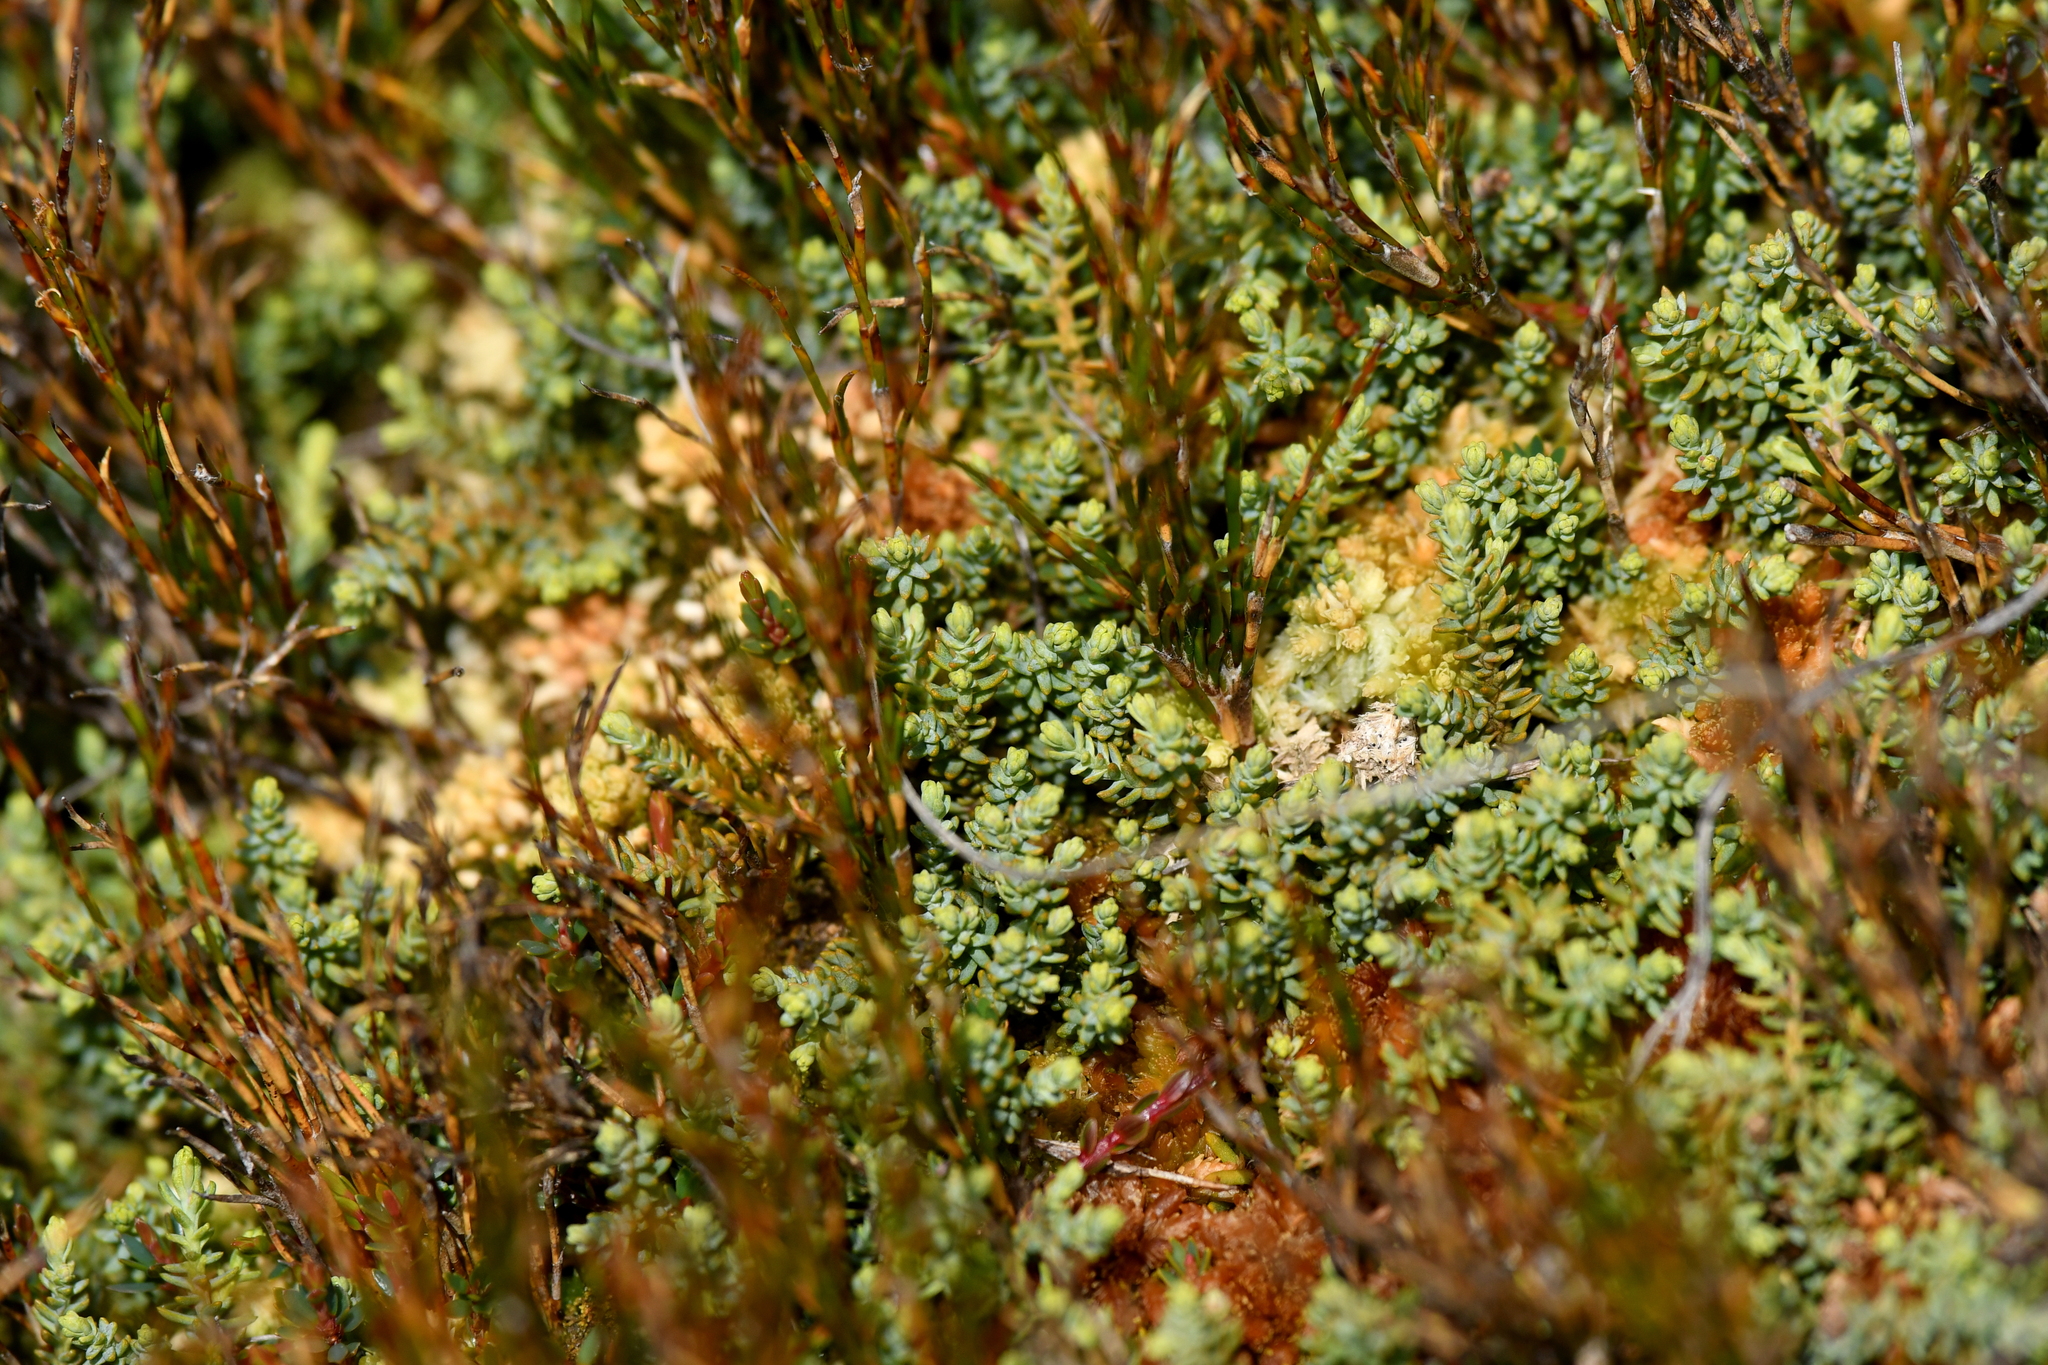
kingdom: Plantae
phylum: Tracheophyta
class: Pinopsida
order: Pinales
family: Podocarpaceae
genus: Lepidothamnus
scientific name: Lepidothamnus laxifolius
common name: Pygmy pine
